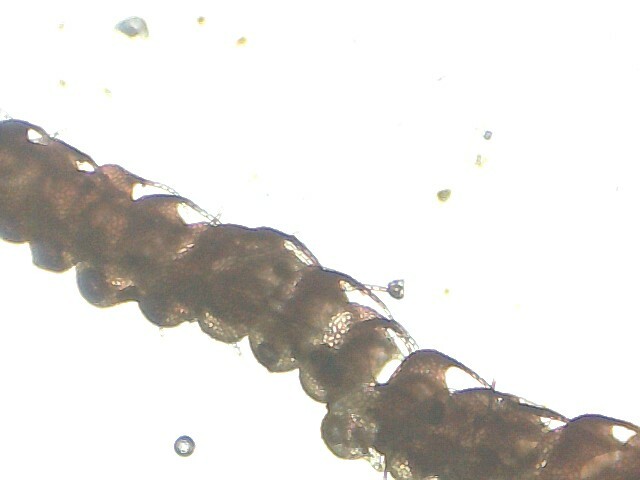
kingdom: Plantae
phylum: Marchantiophyta
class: Jungermanniopsida
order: Jungermanniales
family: Cephaloziaceae
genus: Nowellia
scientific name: Nowellia curvifolia
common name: Wood rustwort
